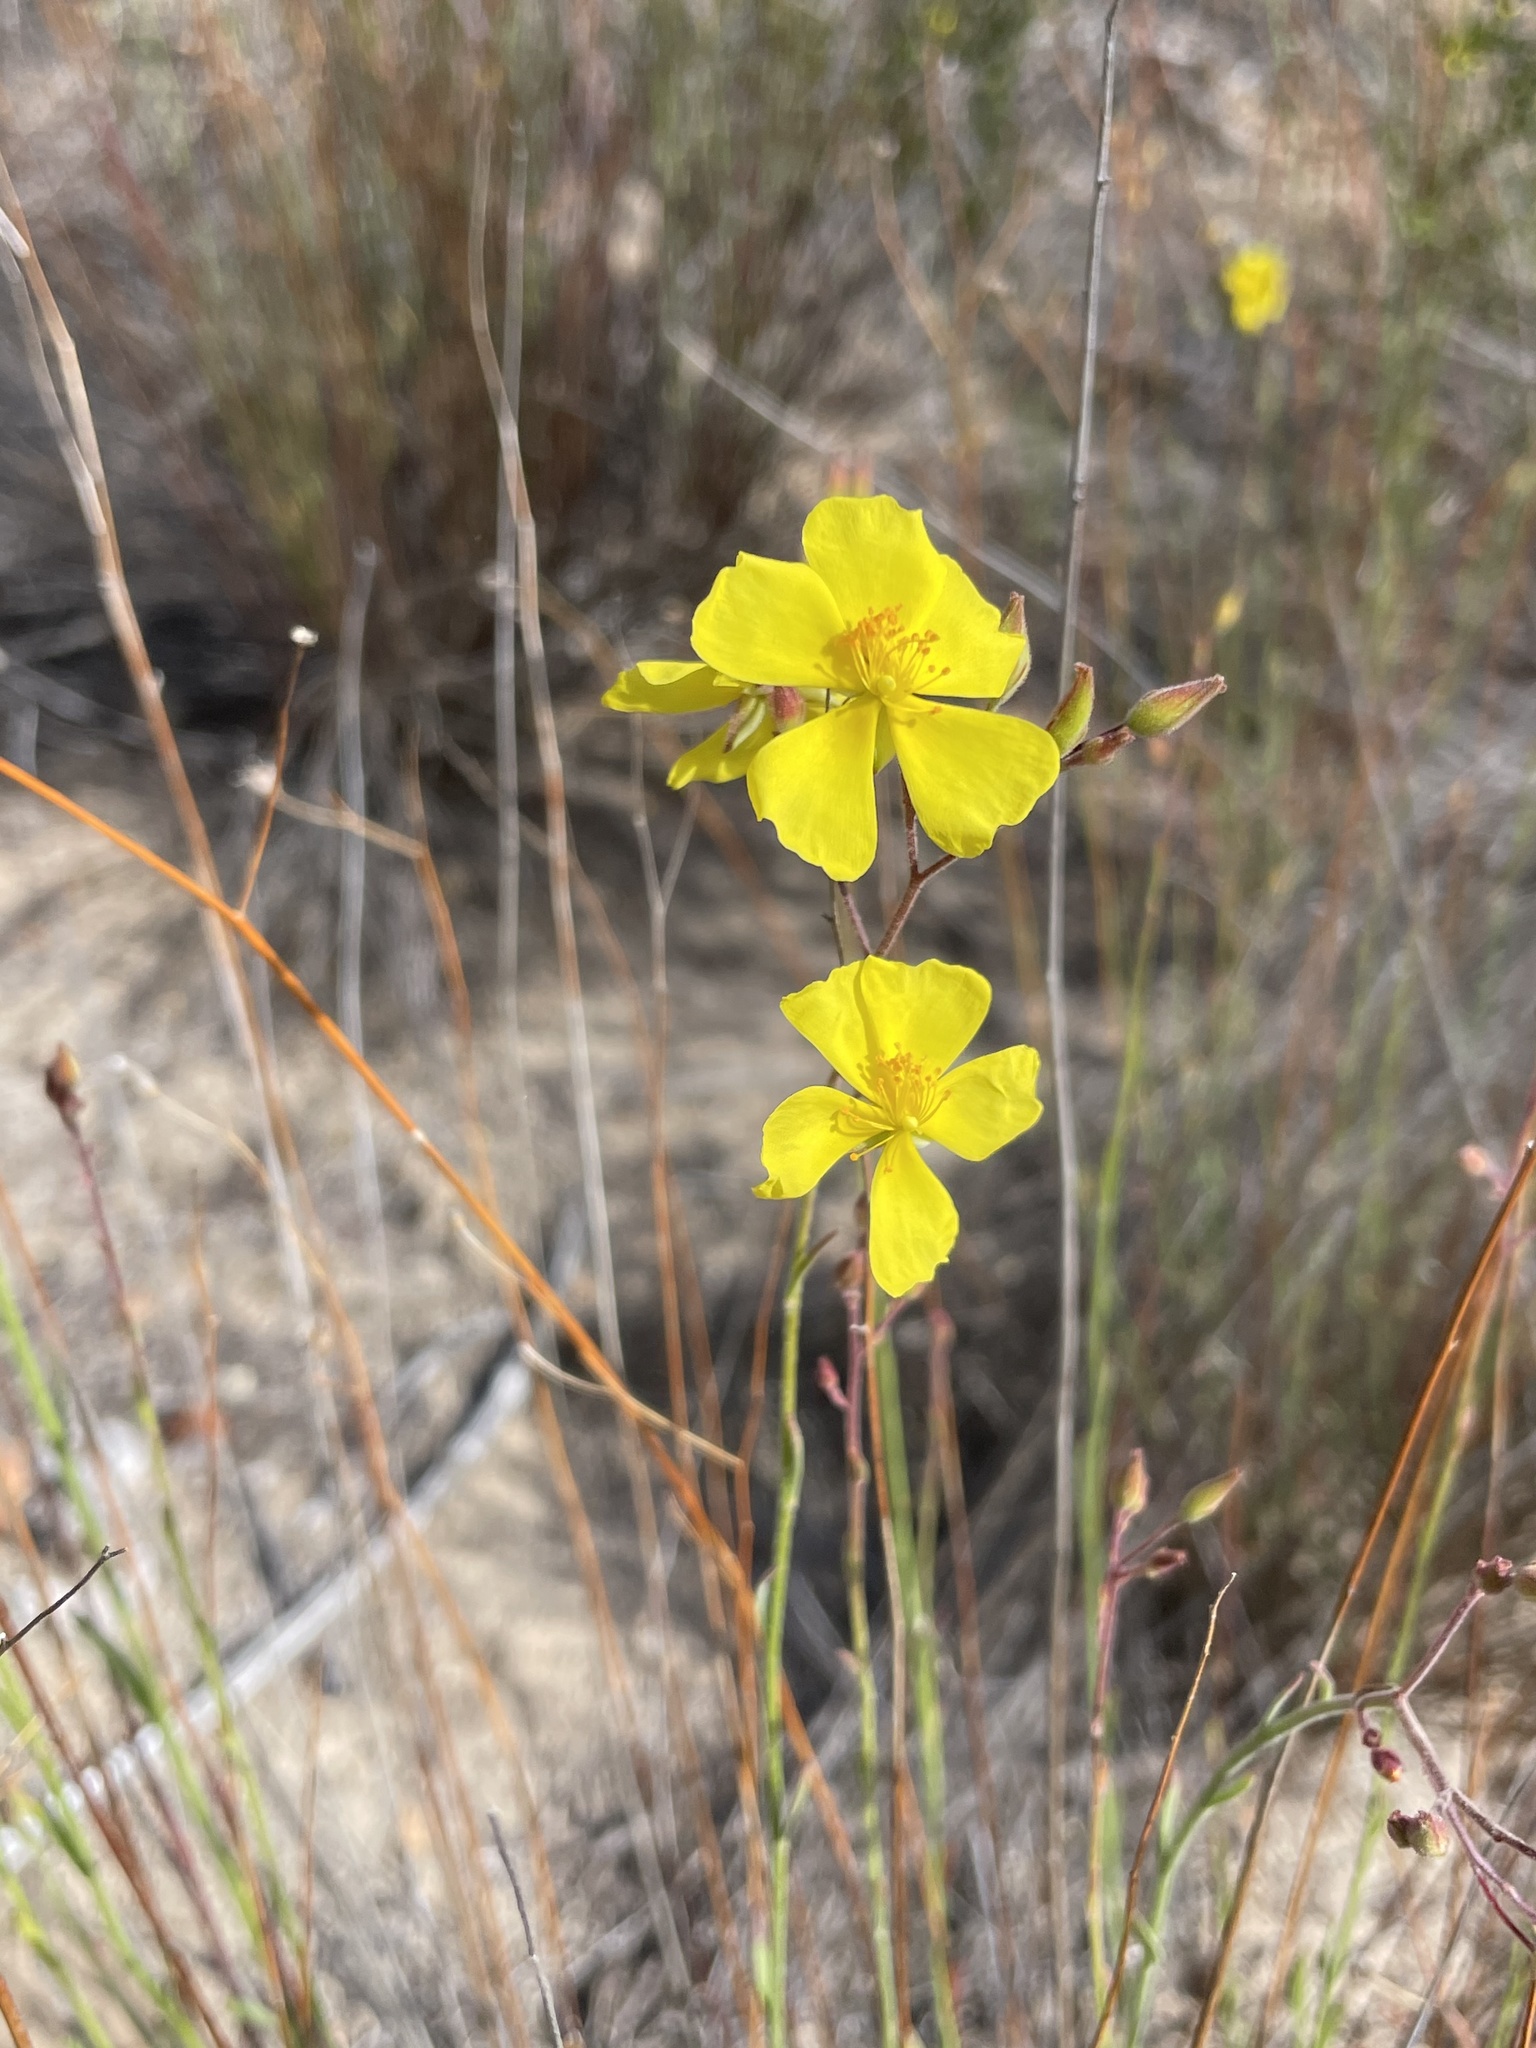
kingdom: Plantae
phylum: Tracheophyta
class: Magnoliopsida
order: Malvales
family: Cistaceae
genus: Crocanthemum
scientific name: Crocanthemum aldersonii
